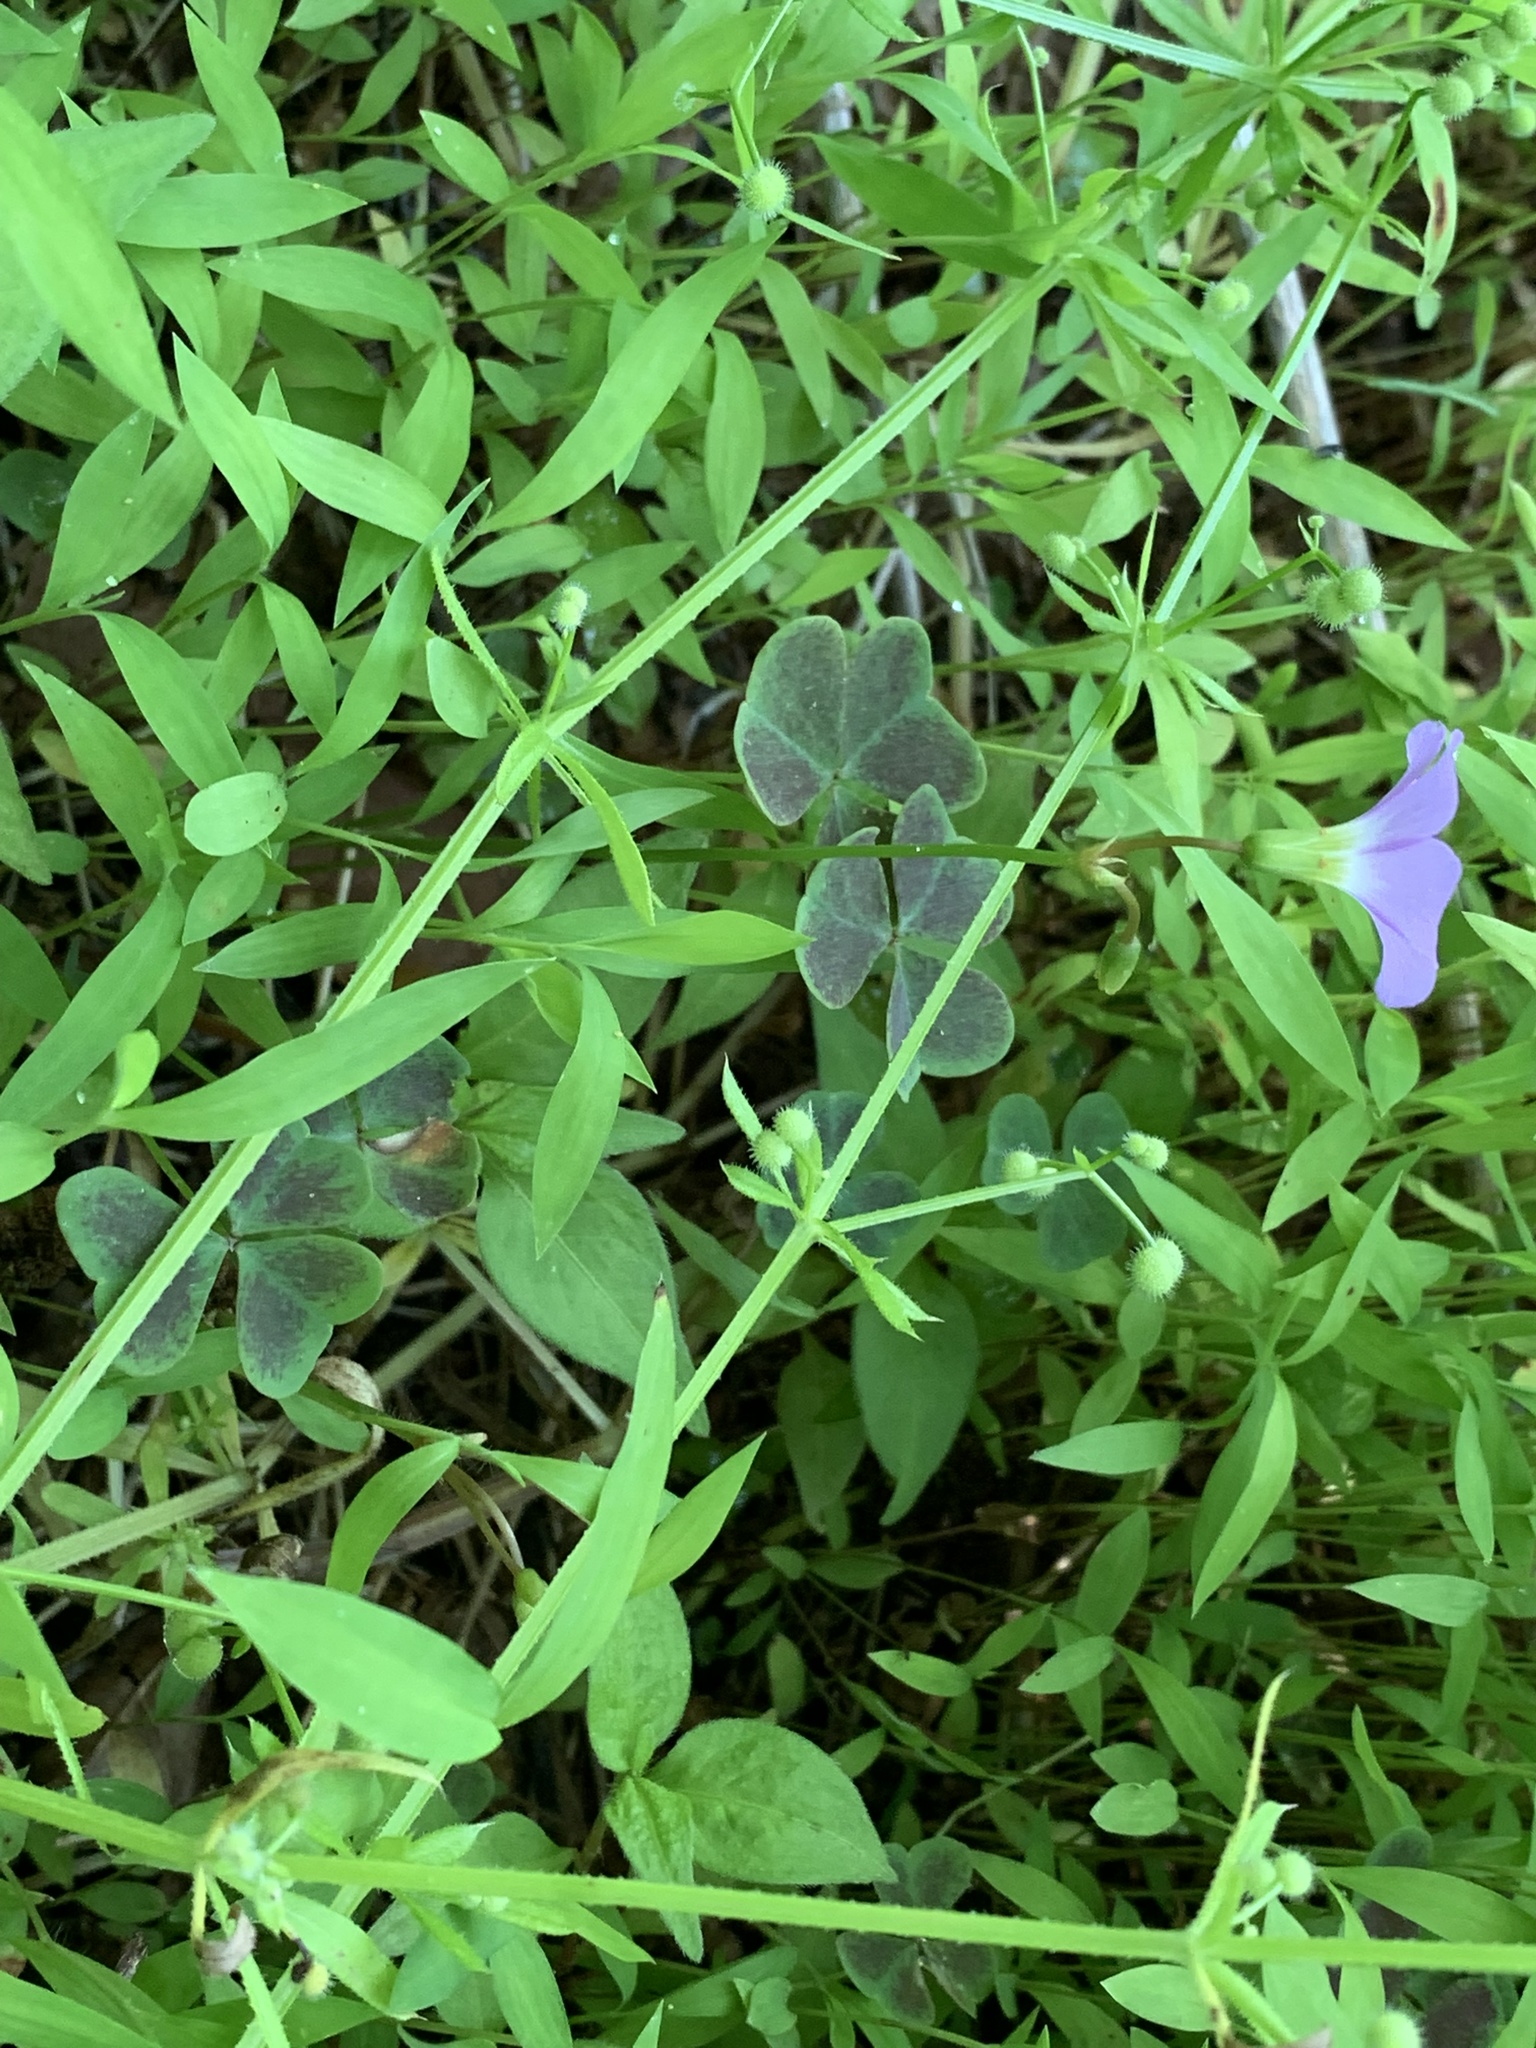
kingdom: Plantae
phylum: Tracheophyta
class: Magnoliopsida
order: Oxalidales
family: Oxalidaceae
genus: Oxalis
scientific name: Oxalis violacea
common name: Violet wood-sorrel
